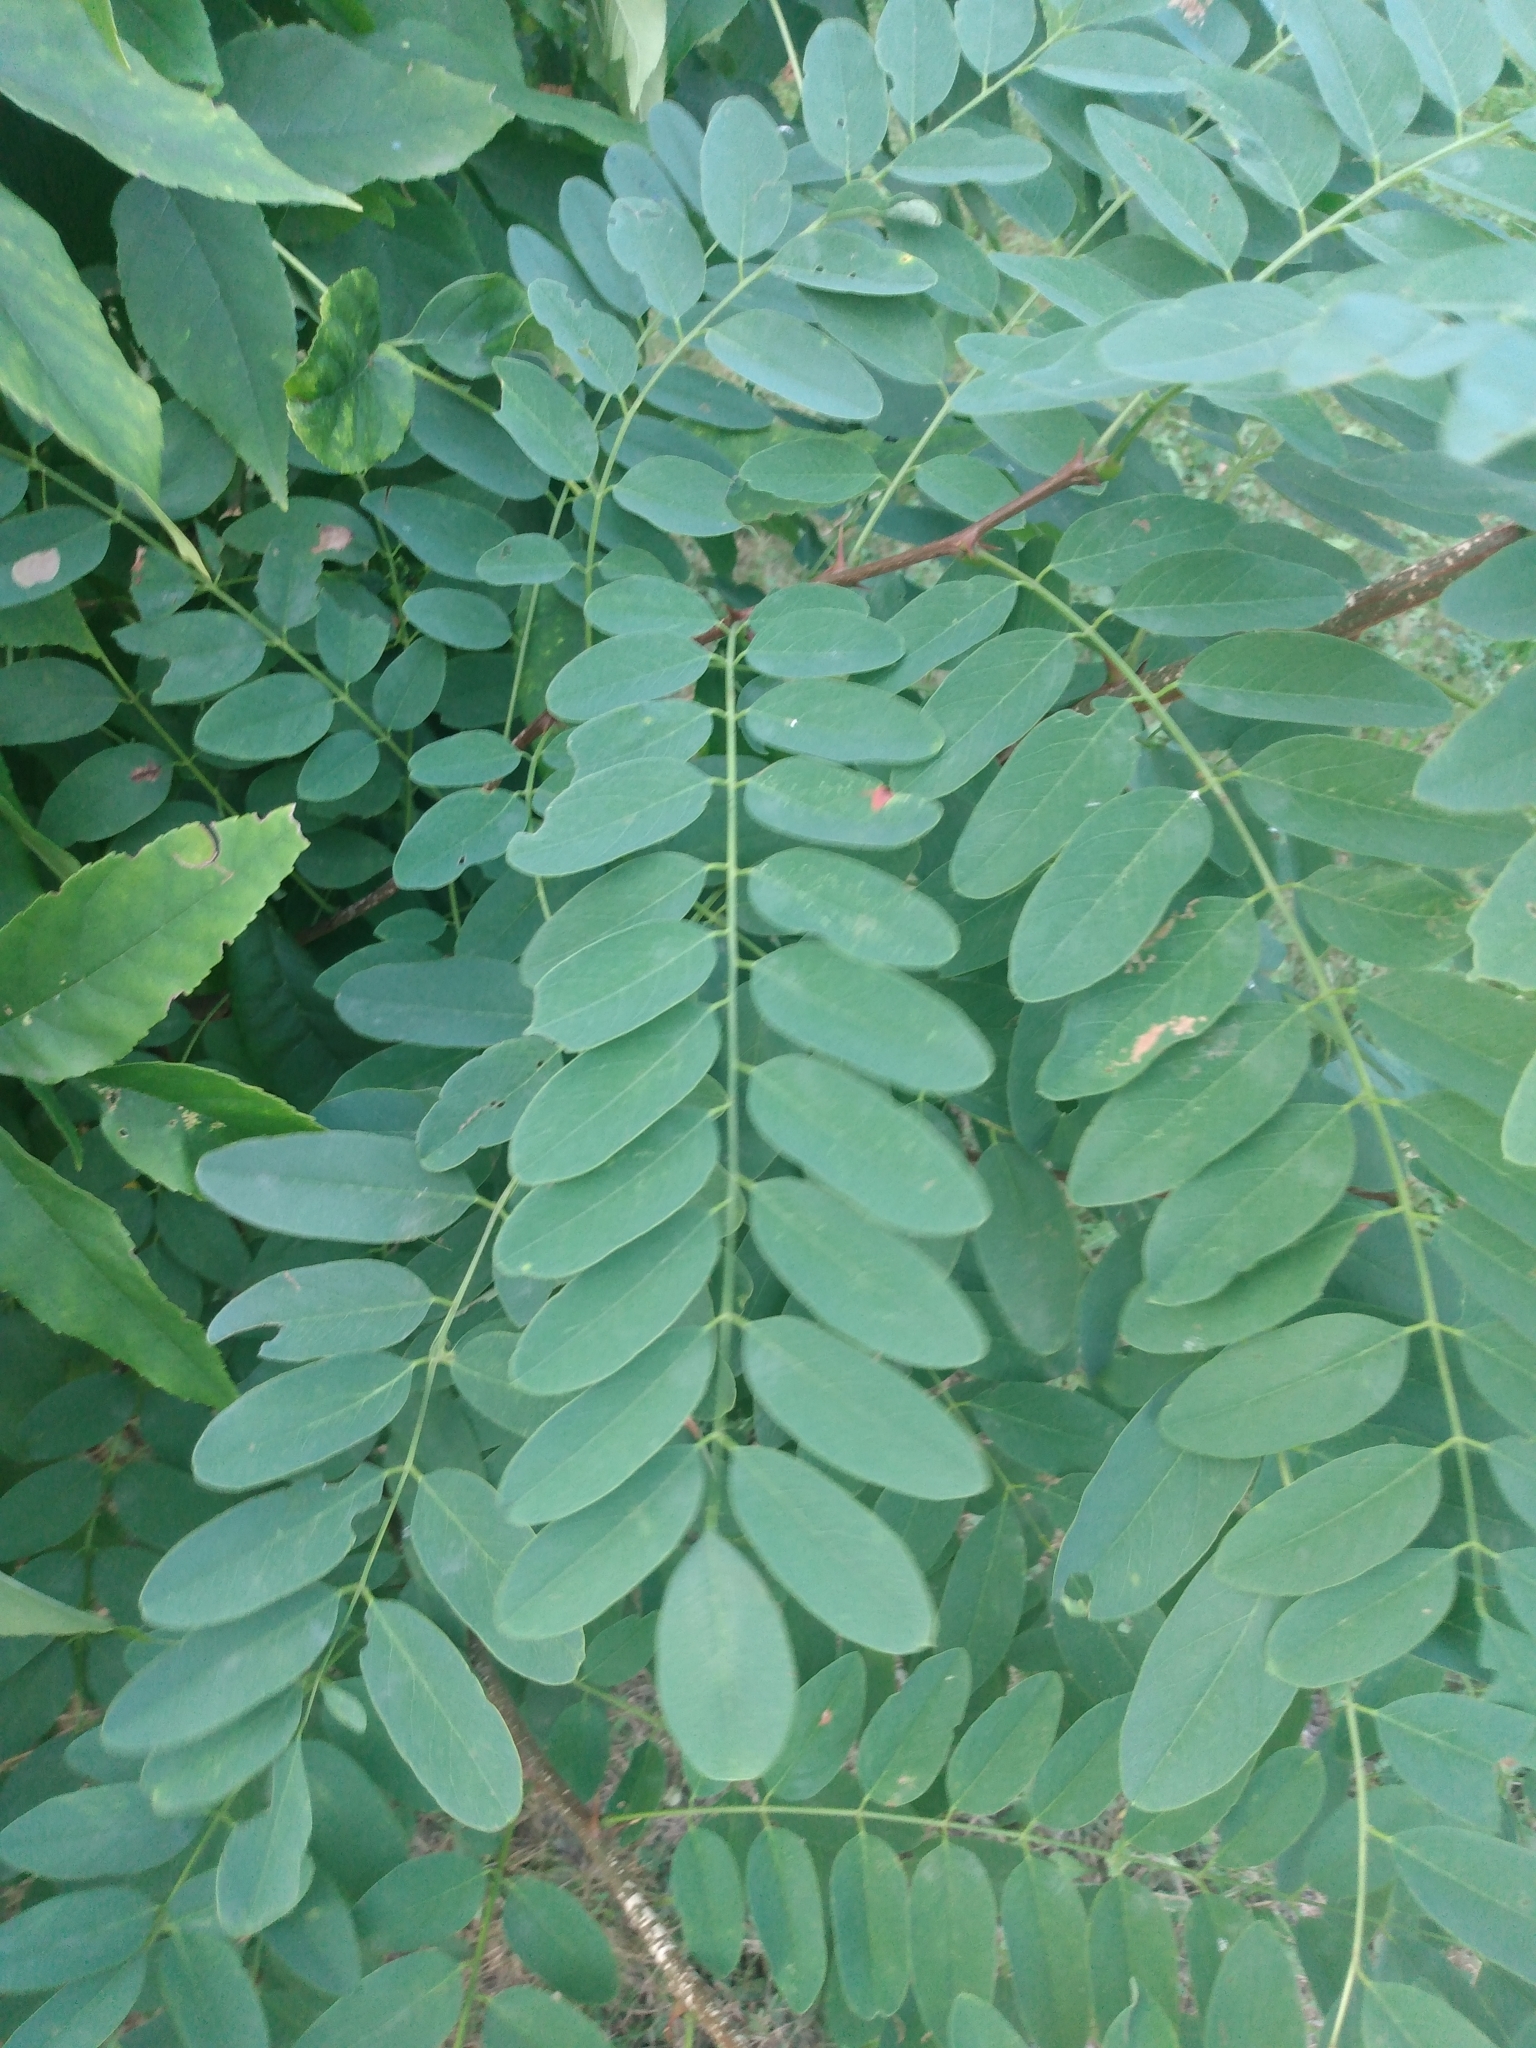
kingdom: Plantae
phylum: Tracheophyta
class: Magnoliopsida
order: Fabales
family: Fabaceae
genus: Robinia
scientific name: Robinia pseudoacacia
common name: Black locust
